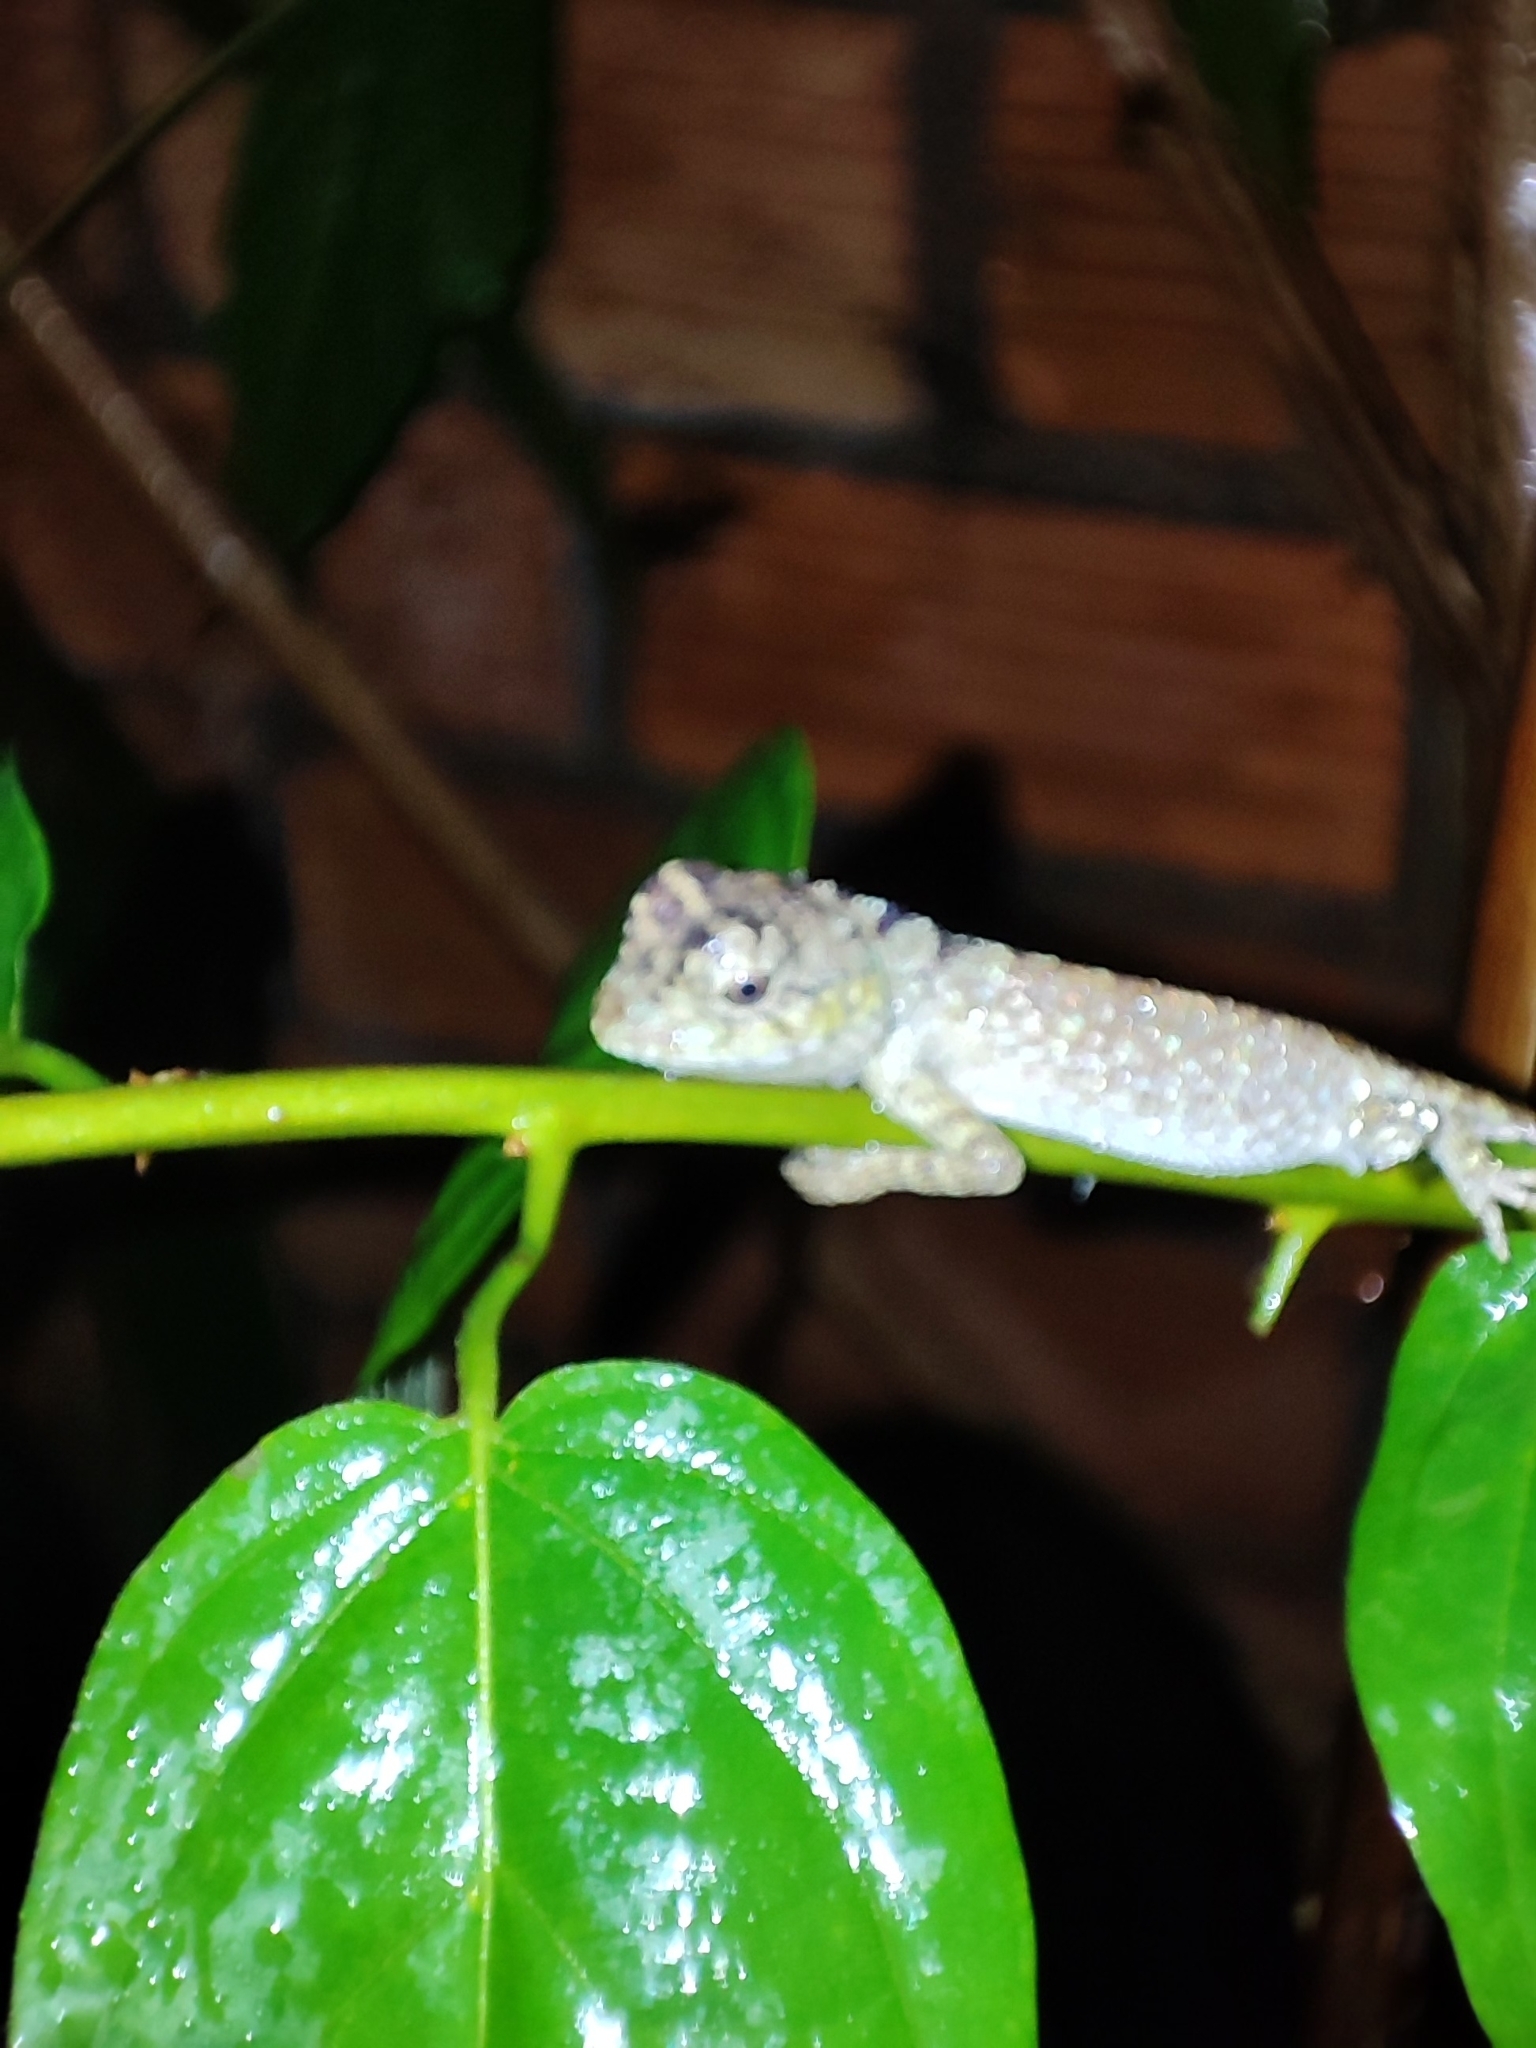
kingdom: Animalia
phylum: Chordata
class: Squamata
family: Agamidae
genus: Calotes
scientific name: Calotes bachae
